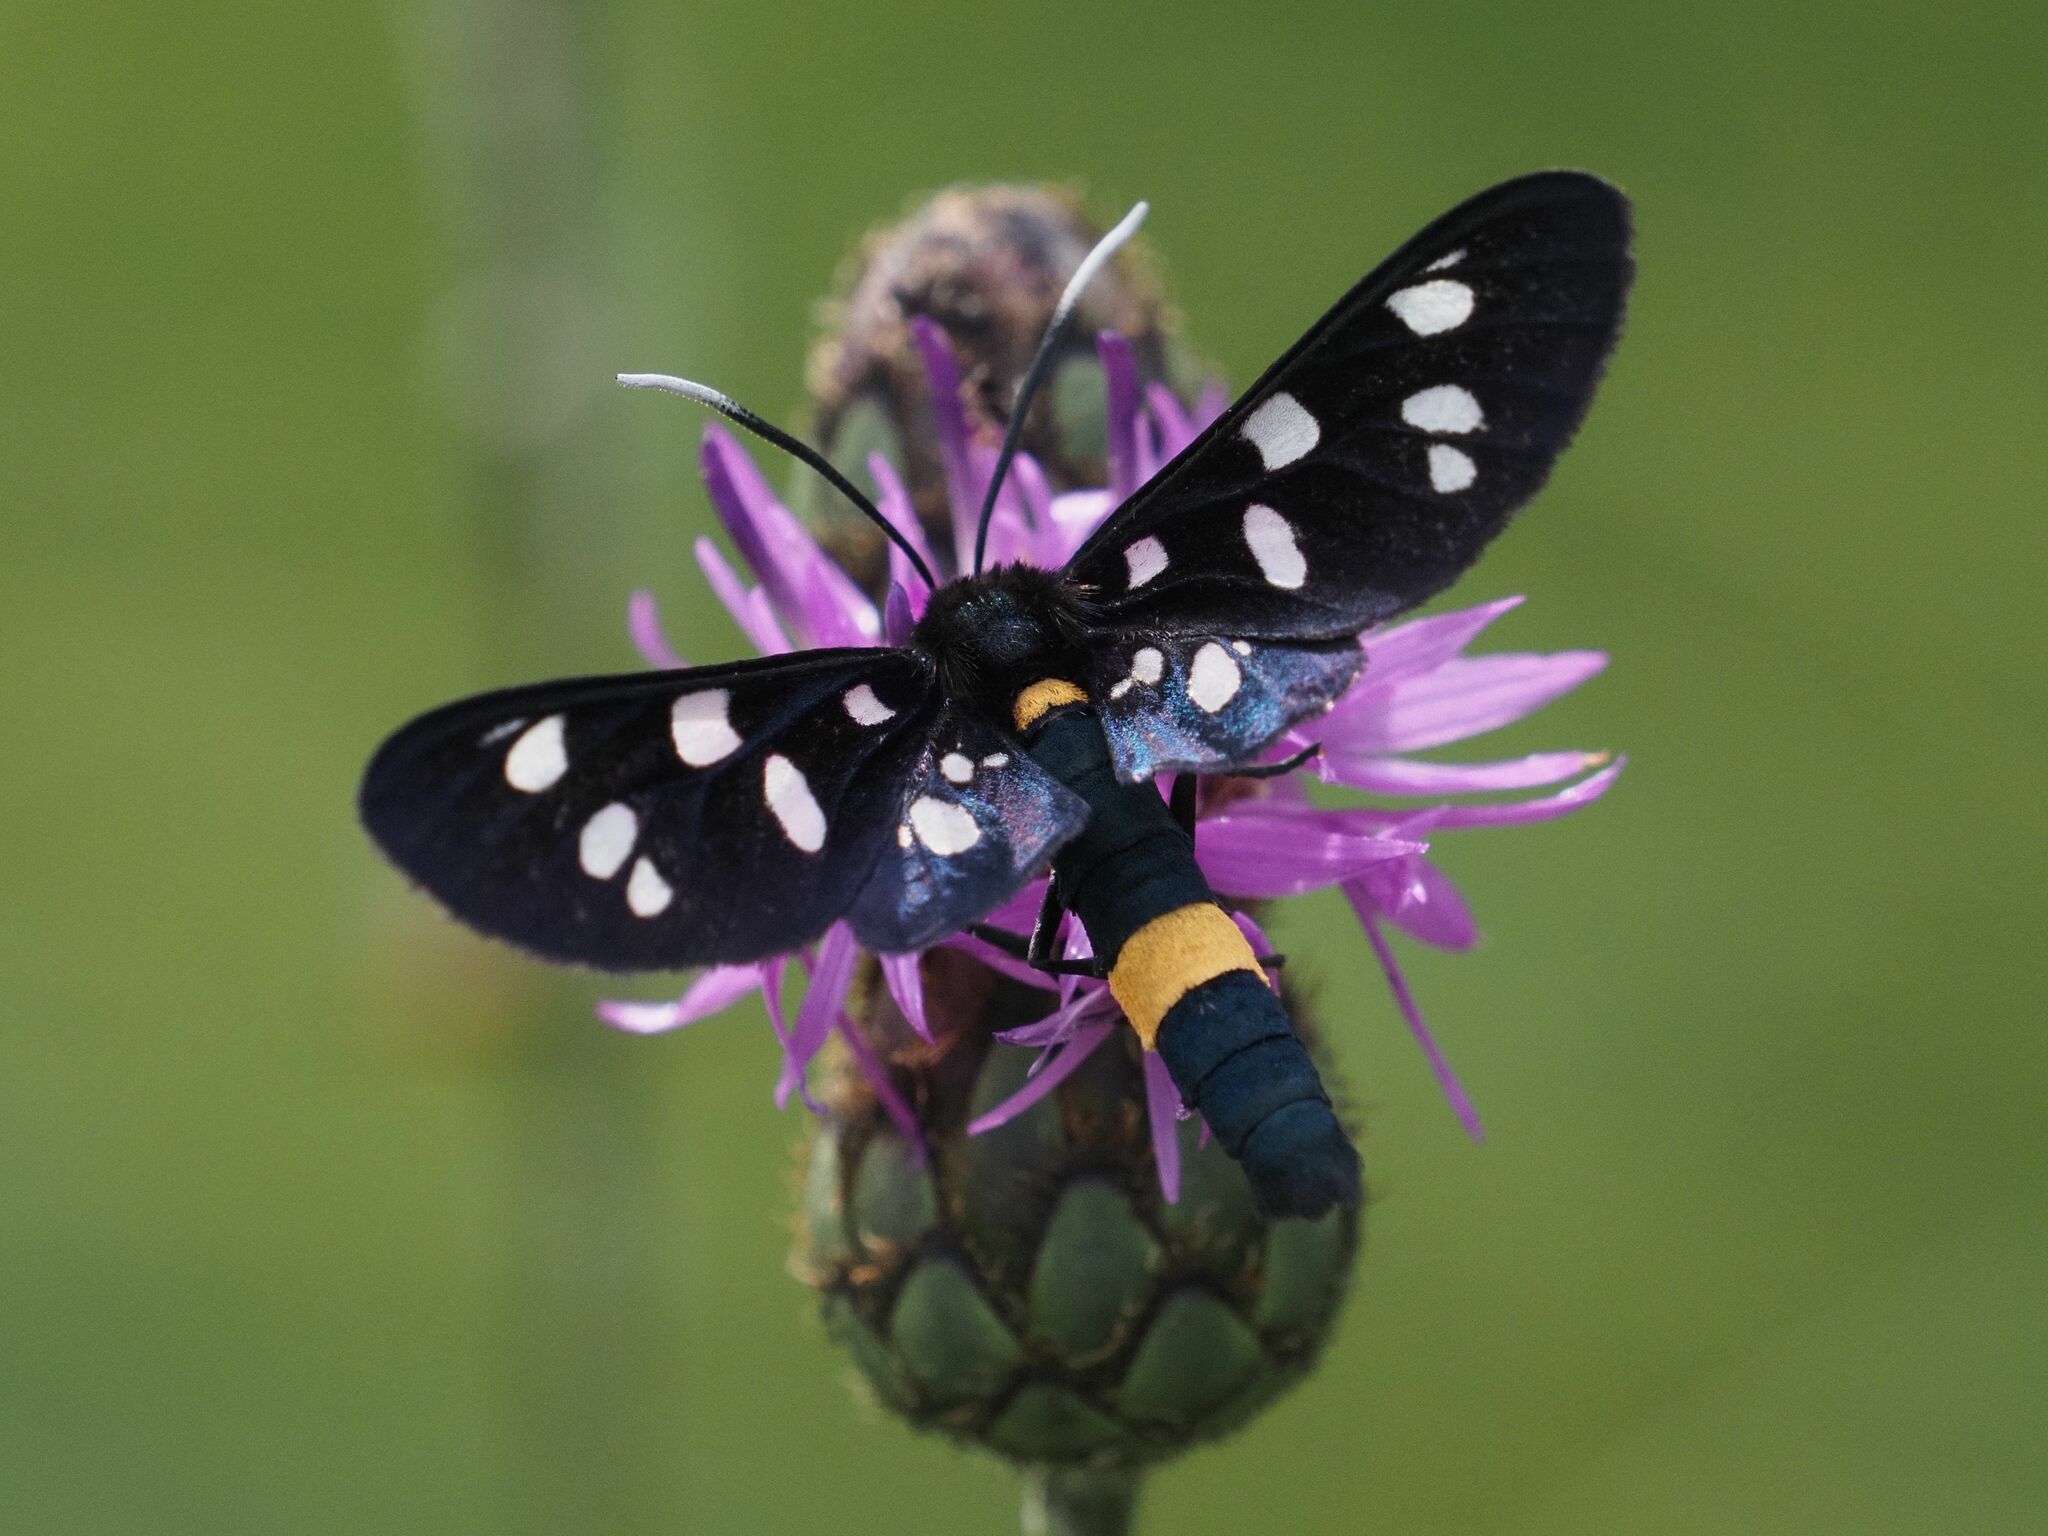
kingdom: Animalia
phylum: Arthropoda
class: Insecta
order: Lepidoptera
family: Erebidae
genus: Amata
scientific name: Amata phegea
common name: Nine-spotted
